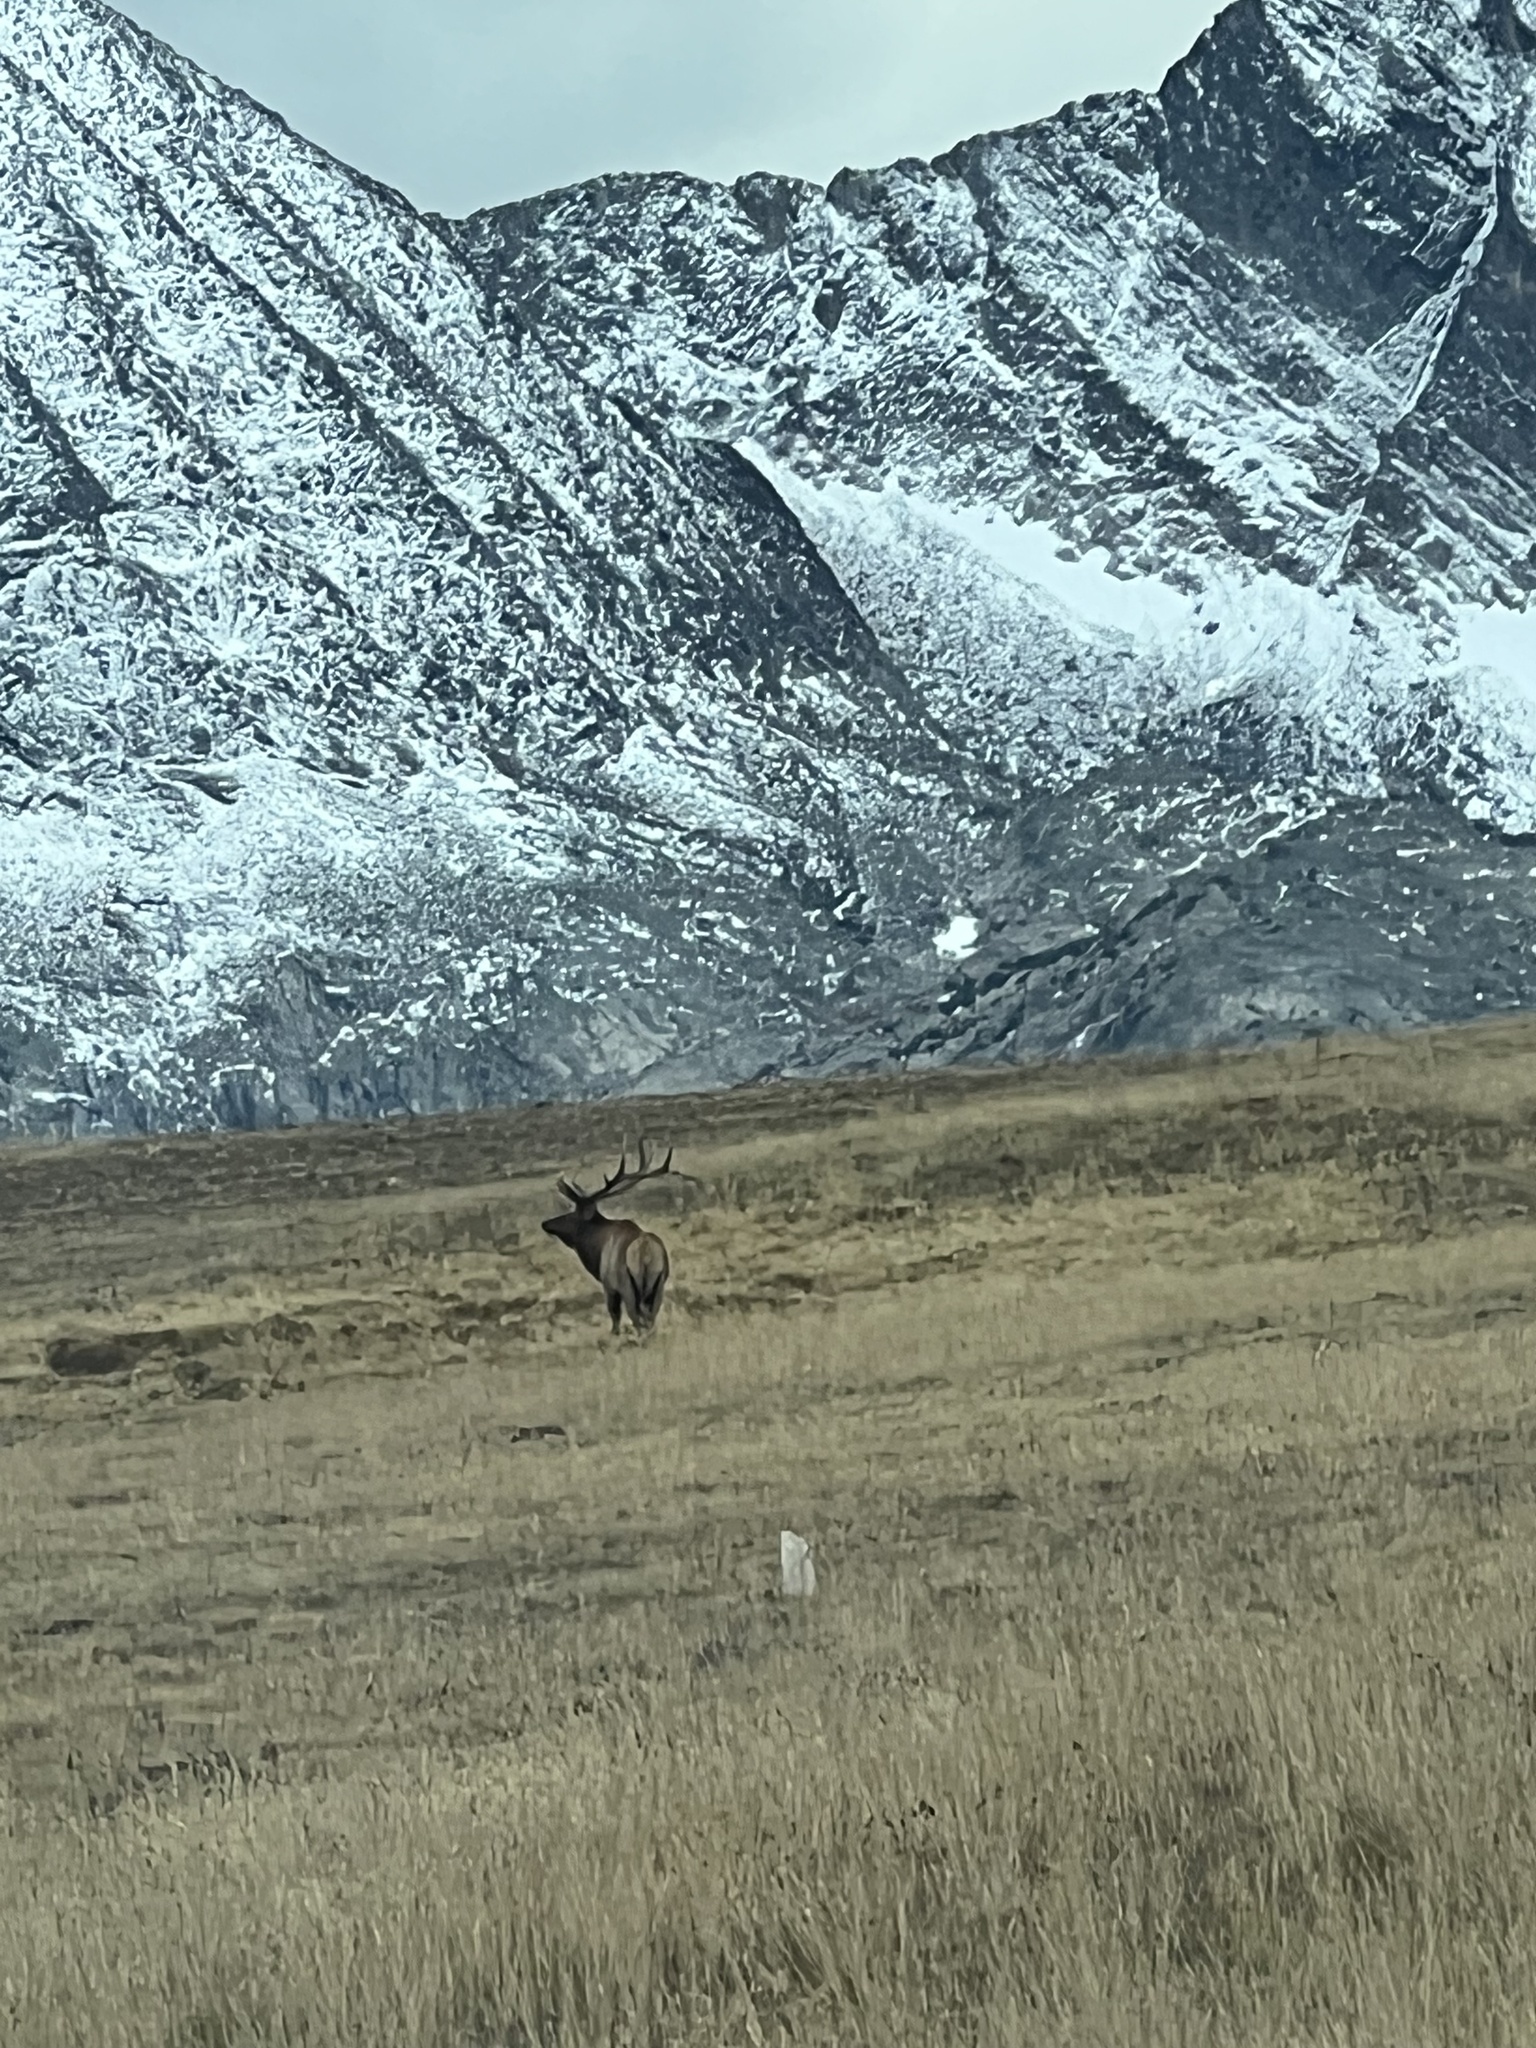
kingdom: Animalia
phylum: Chordata
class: Mammalia
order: Artiodactyla
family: Cervidae
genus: Cervus
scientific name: Cervus elaphus
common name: Red deer
